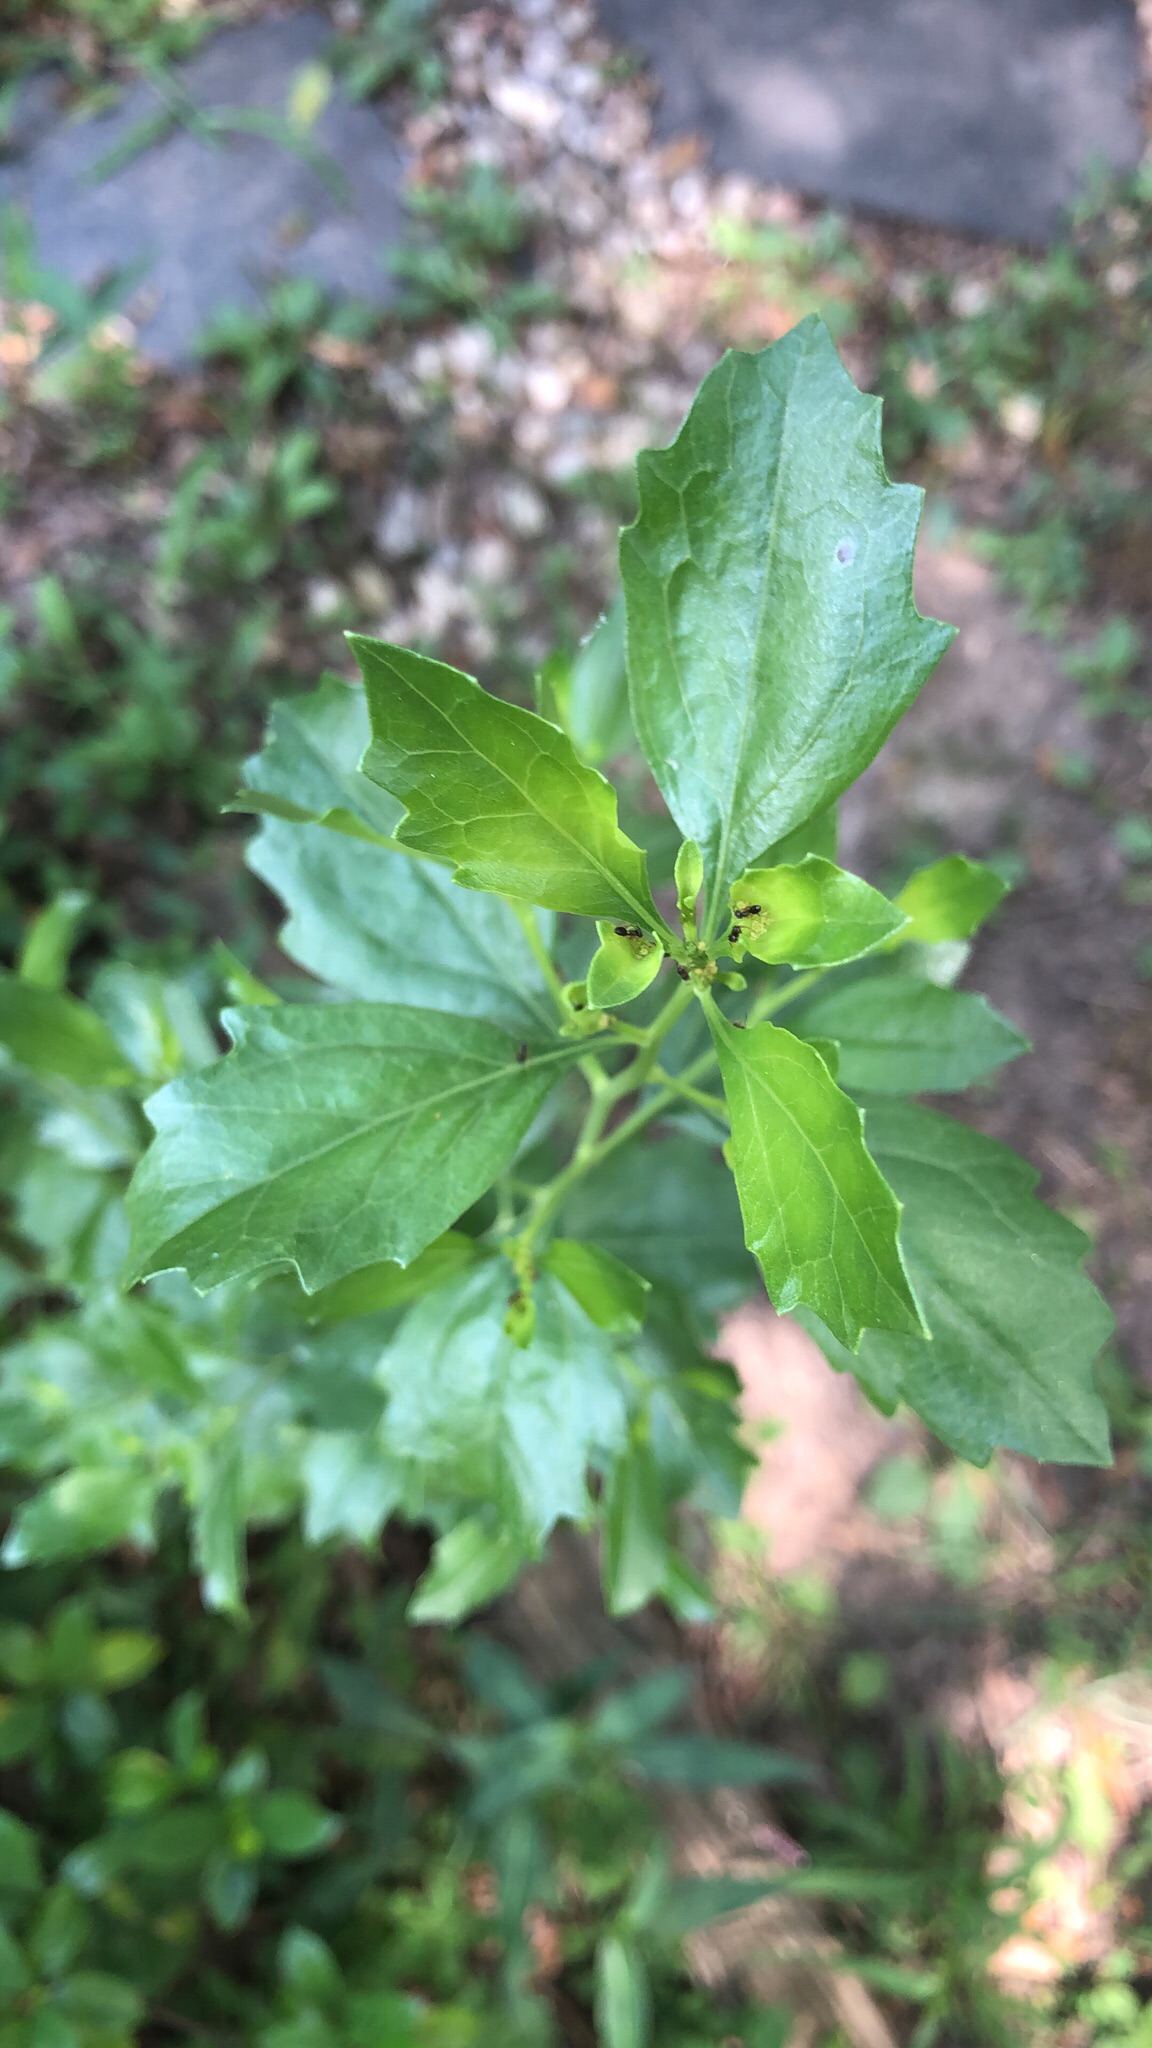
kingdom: Plantae
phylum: Tracheophyta
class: Magnoliopsida
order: Asterales
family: Asteraceae
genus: Baccharis
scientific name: Baccharis halimifolia
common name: Eastern baccharis
